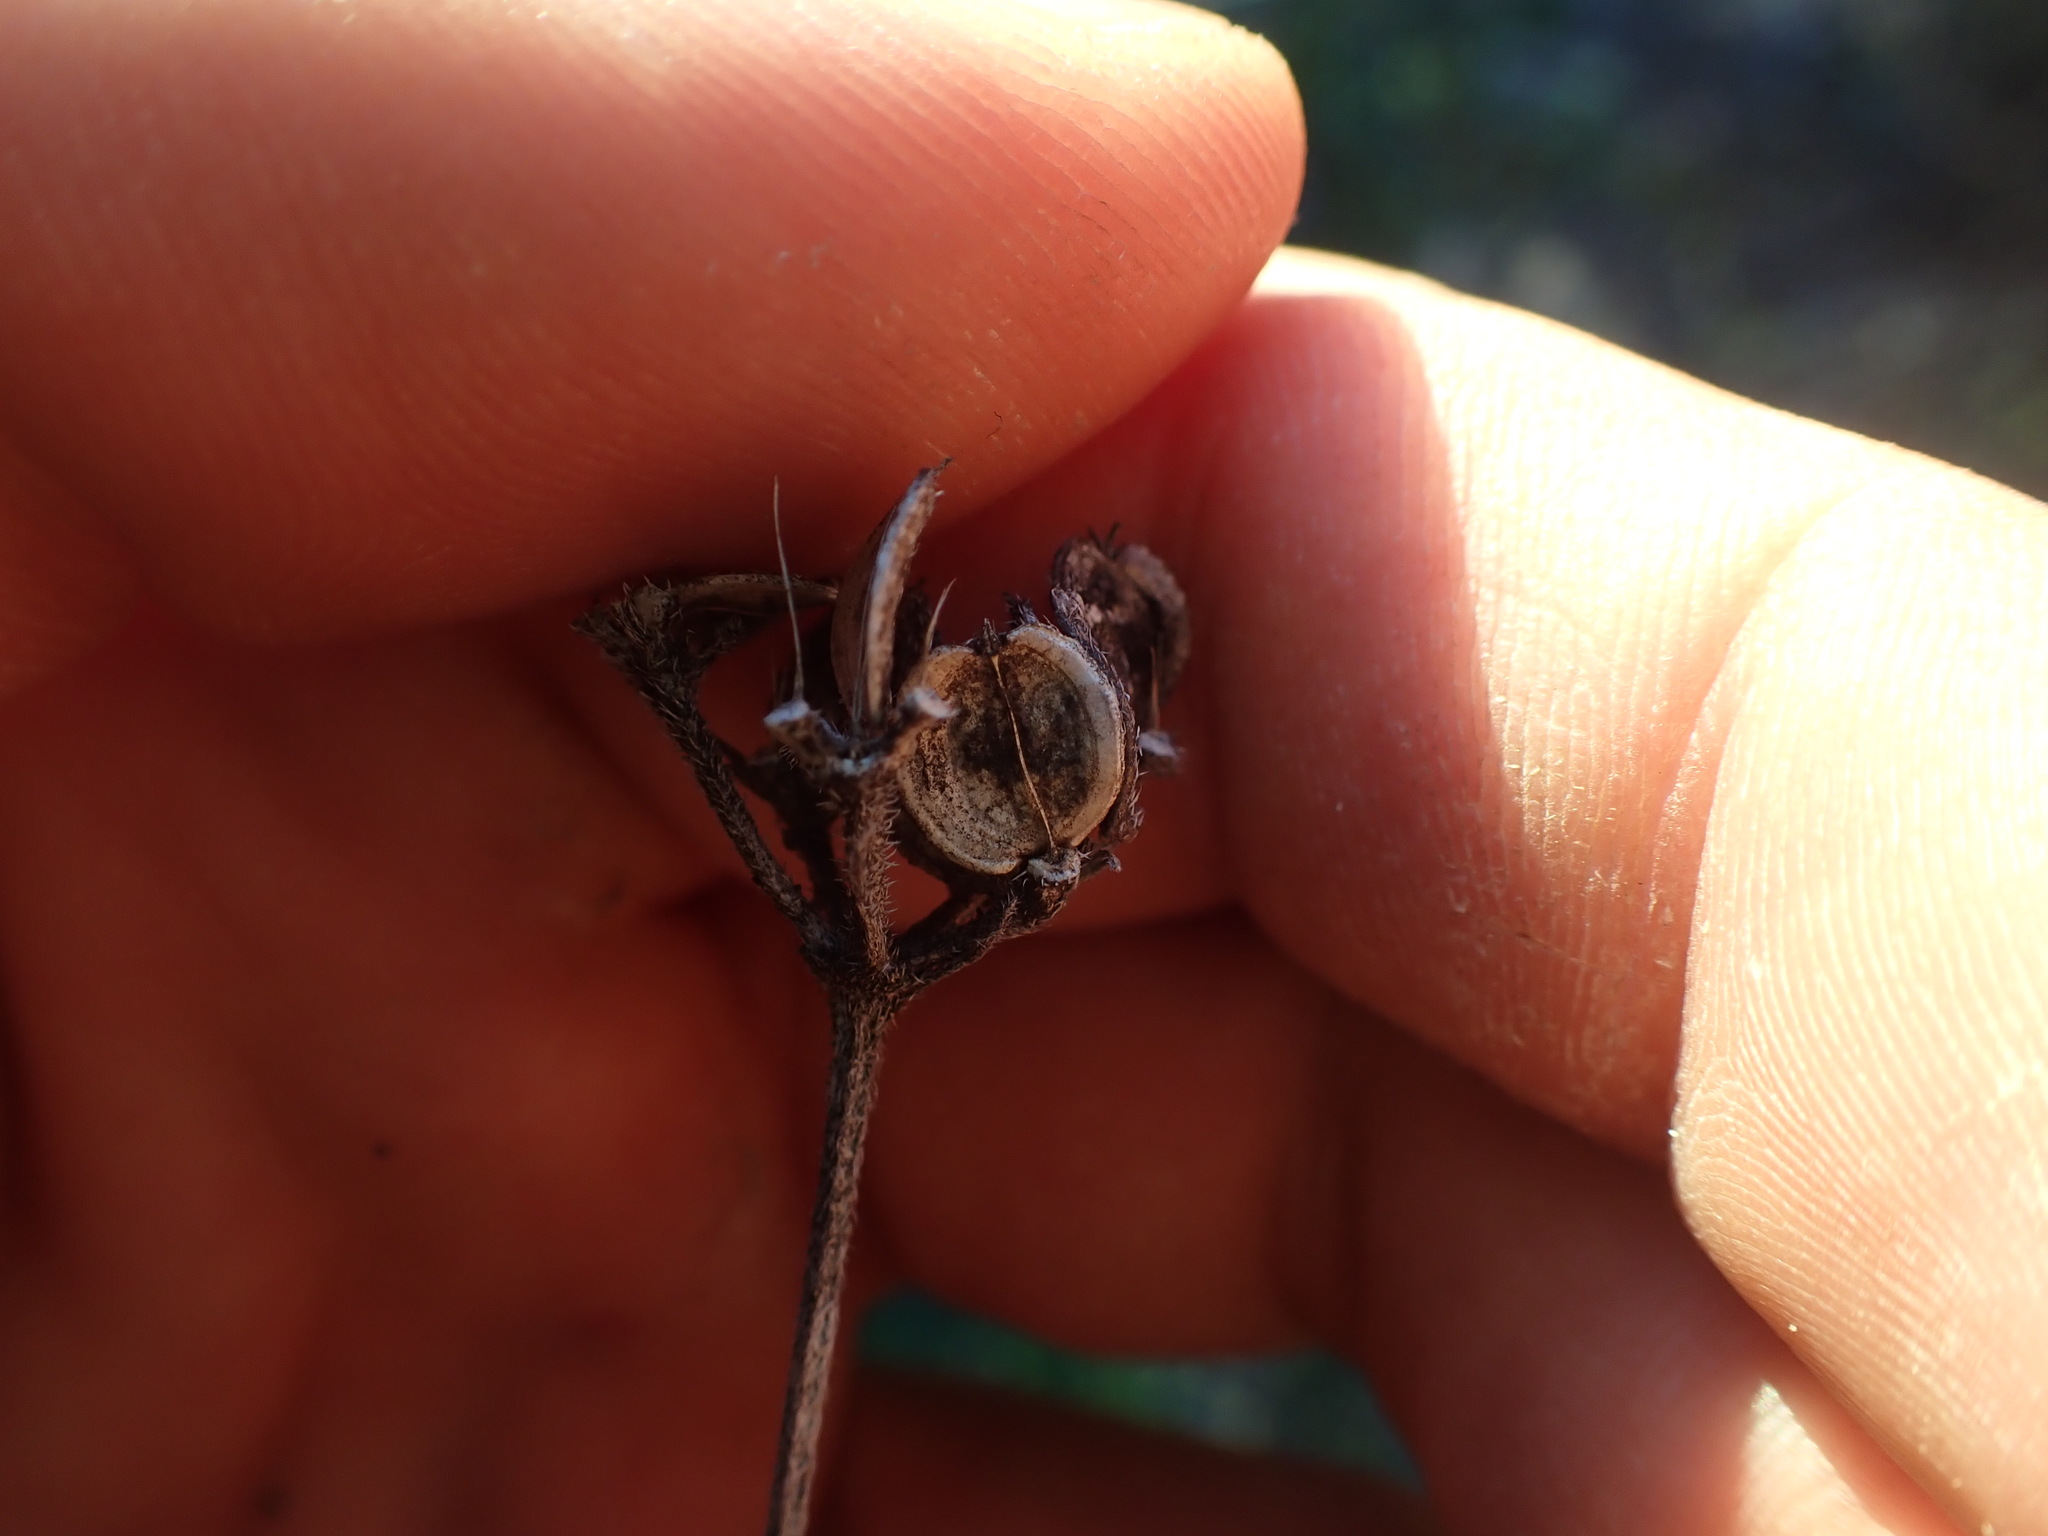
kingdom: Plantae
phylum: Tracheophyta
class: Magnoliopsida
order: Apiales
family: Apiaceae
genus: Tordylium
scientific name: Tordylium maximum
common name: Hartwort
